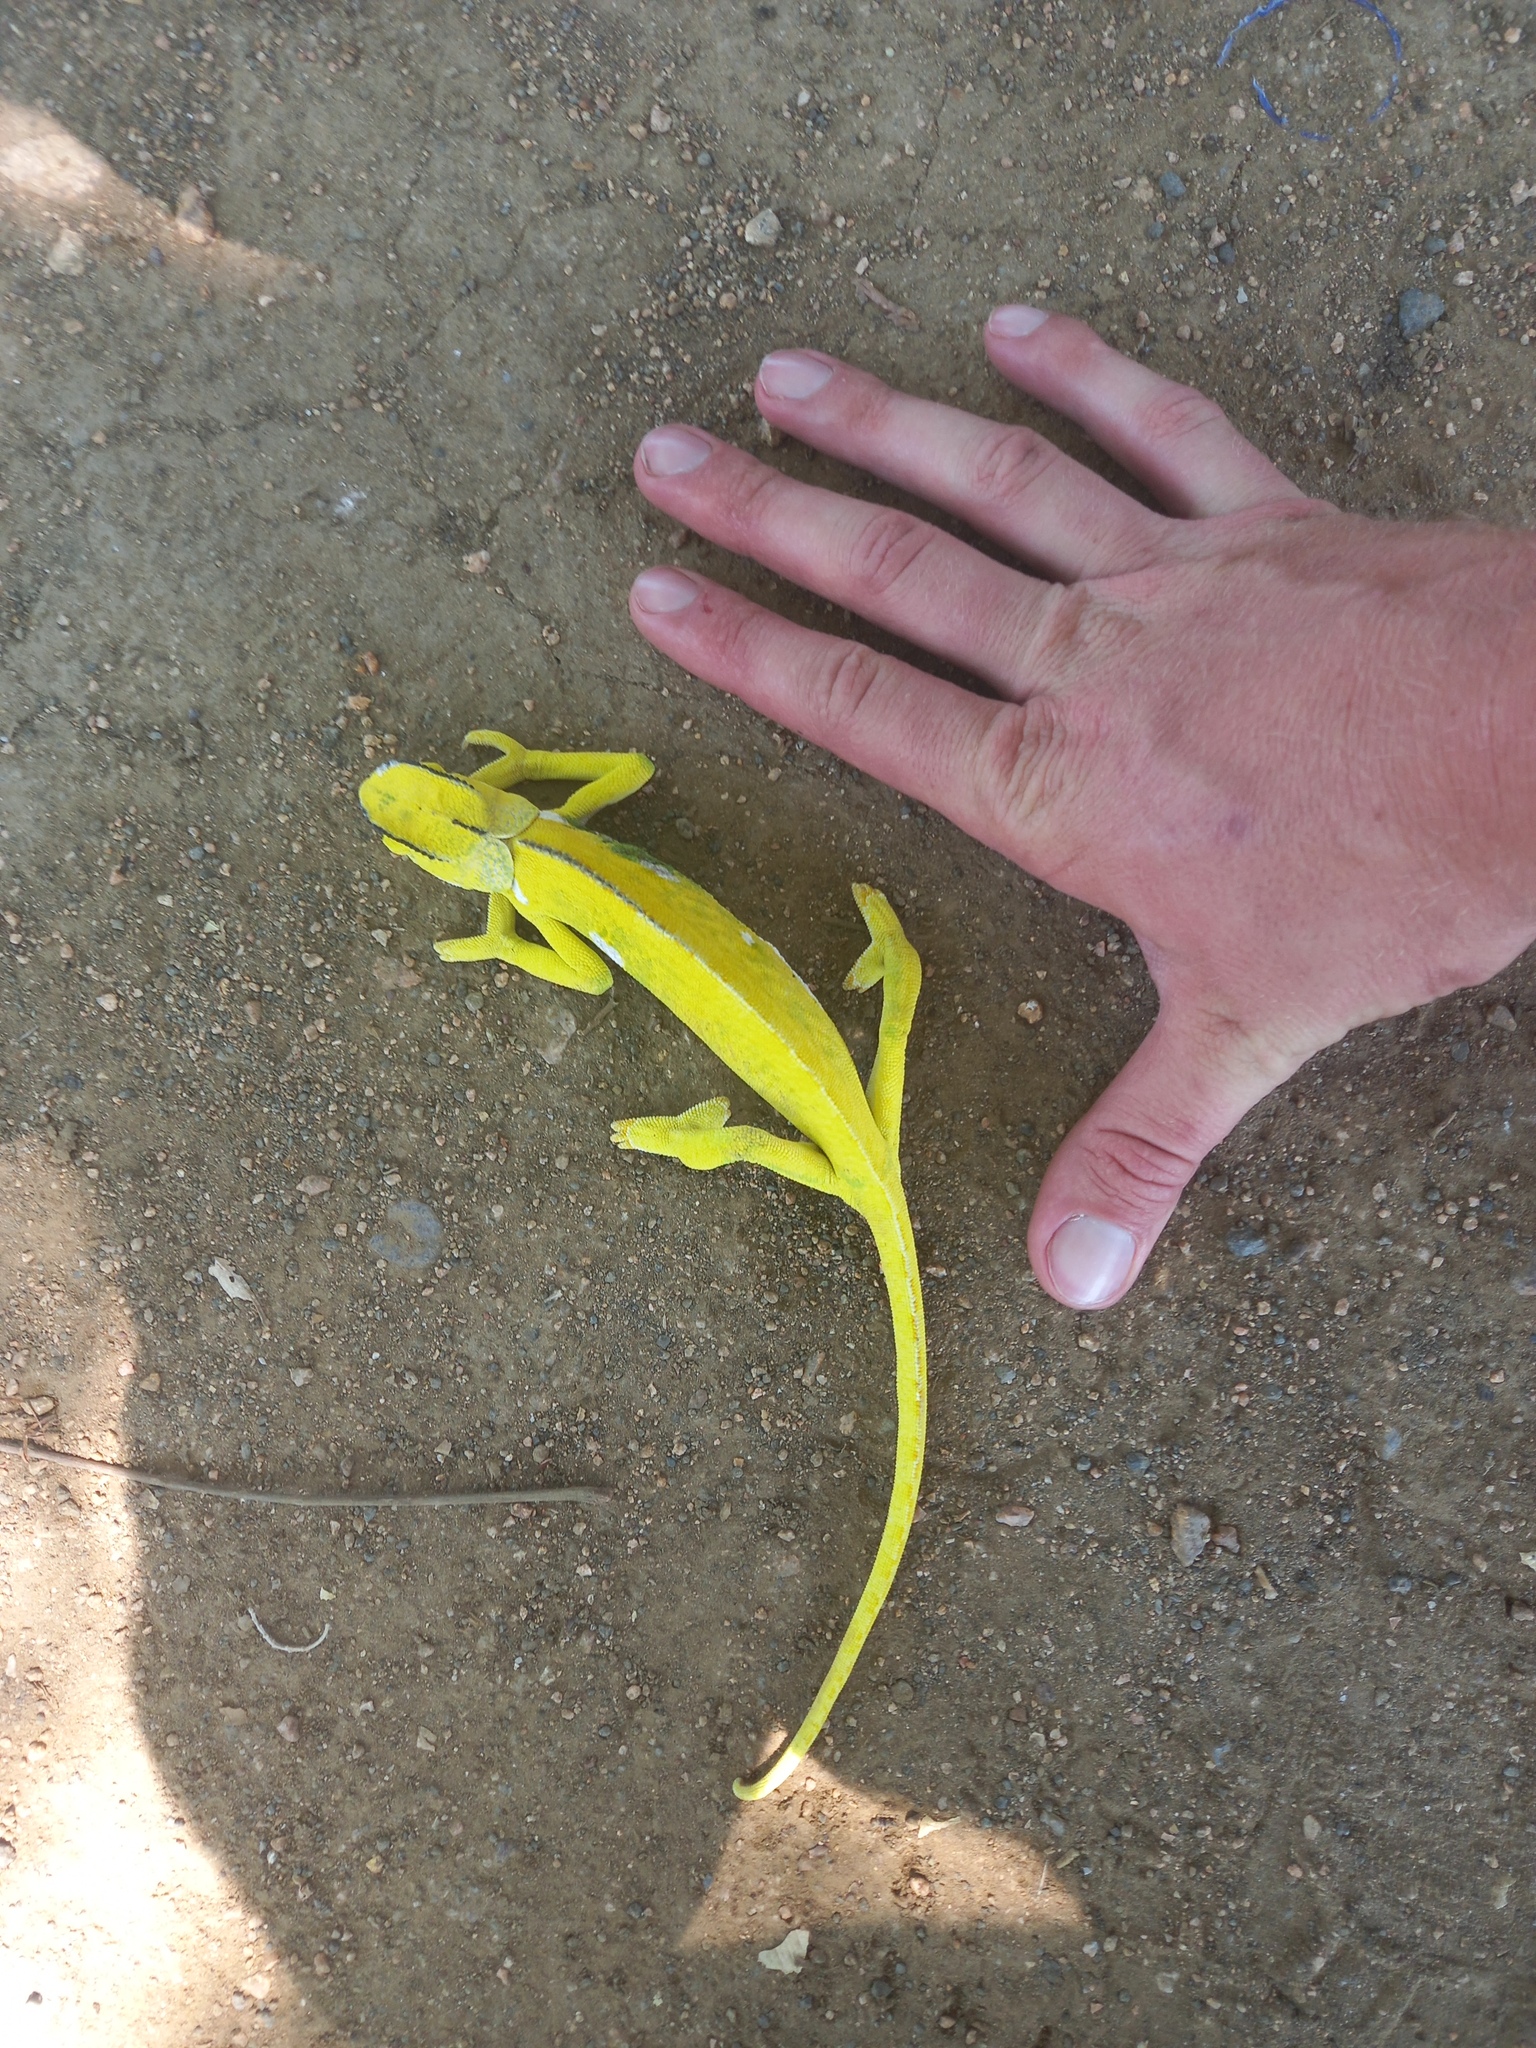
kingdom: Animalia
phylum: Chordata
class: Squamata
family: Chamaeleonidae
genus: Chamaeleo
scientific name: Chamaeleo dilepis
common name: Flapneck chameleon
